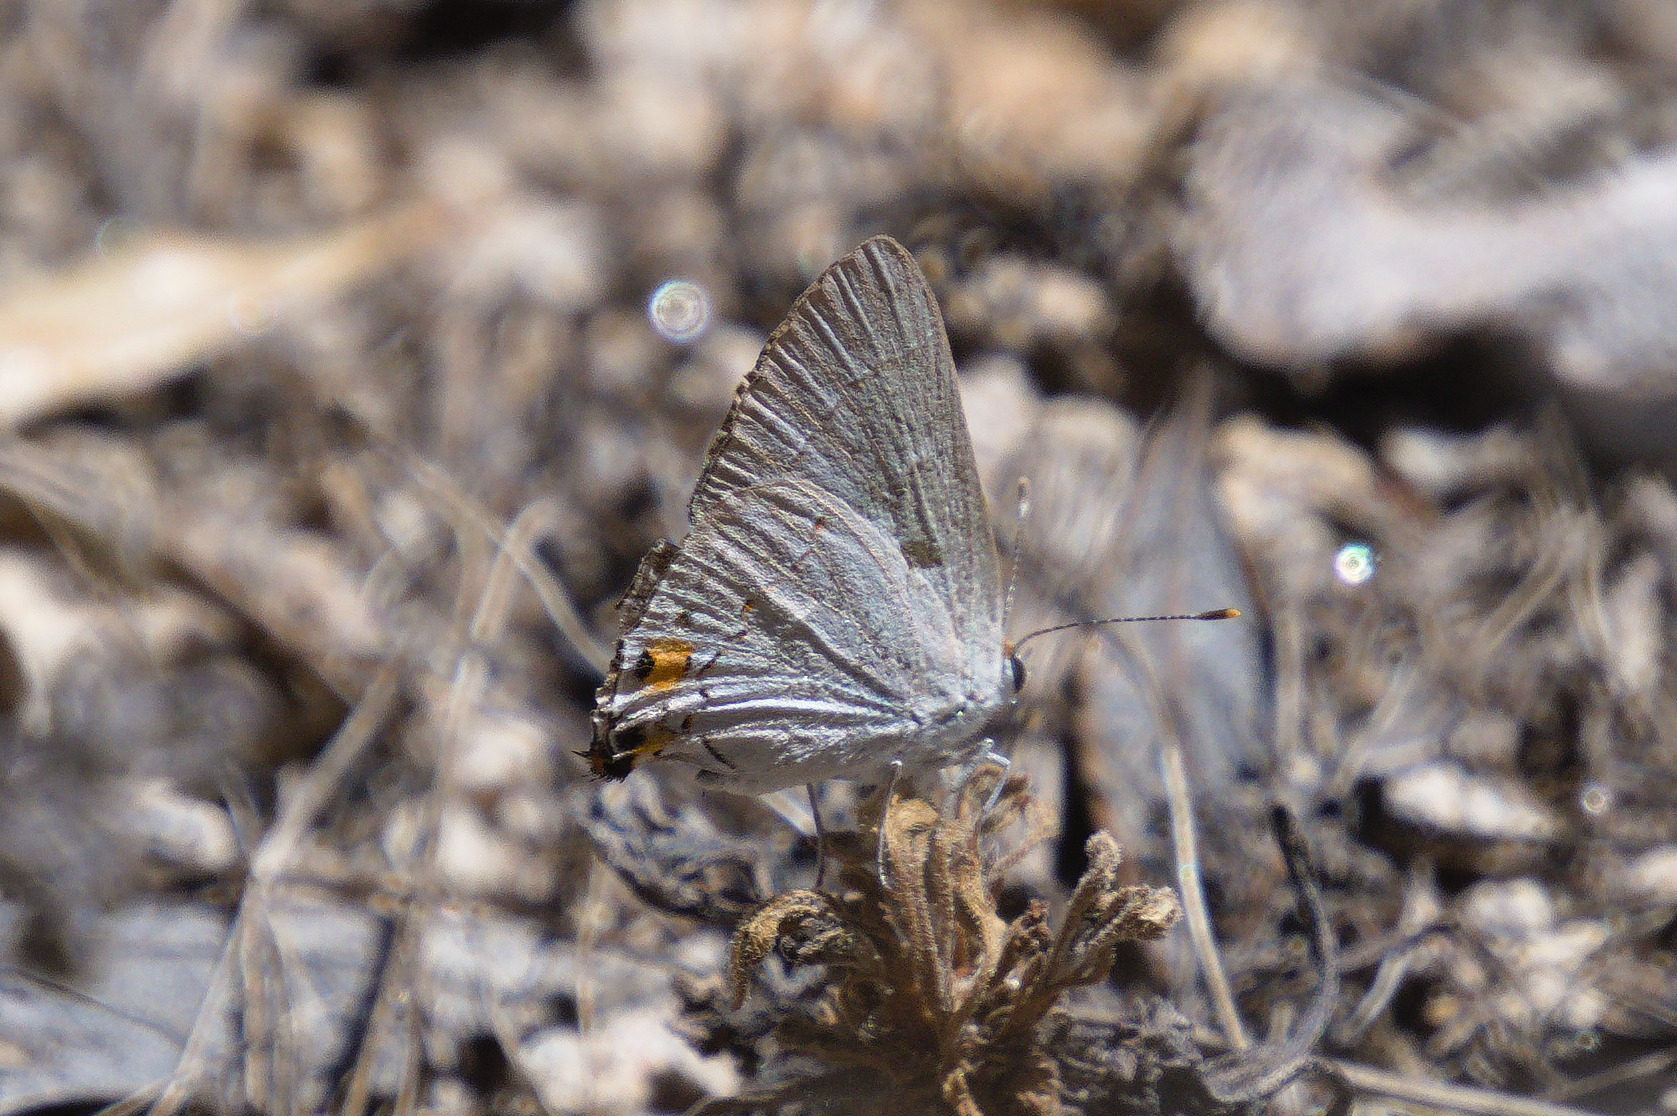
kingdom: Animalia
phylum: Arthropoda
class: Insecta
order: Lepidoptera
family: Lycaenidae
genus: Strymon
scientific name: Strymon melinus
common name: Gray hairstreak
